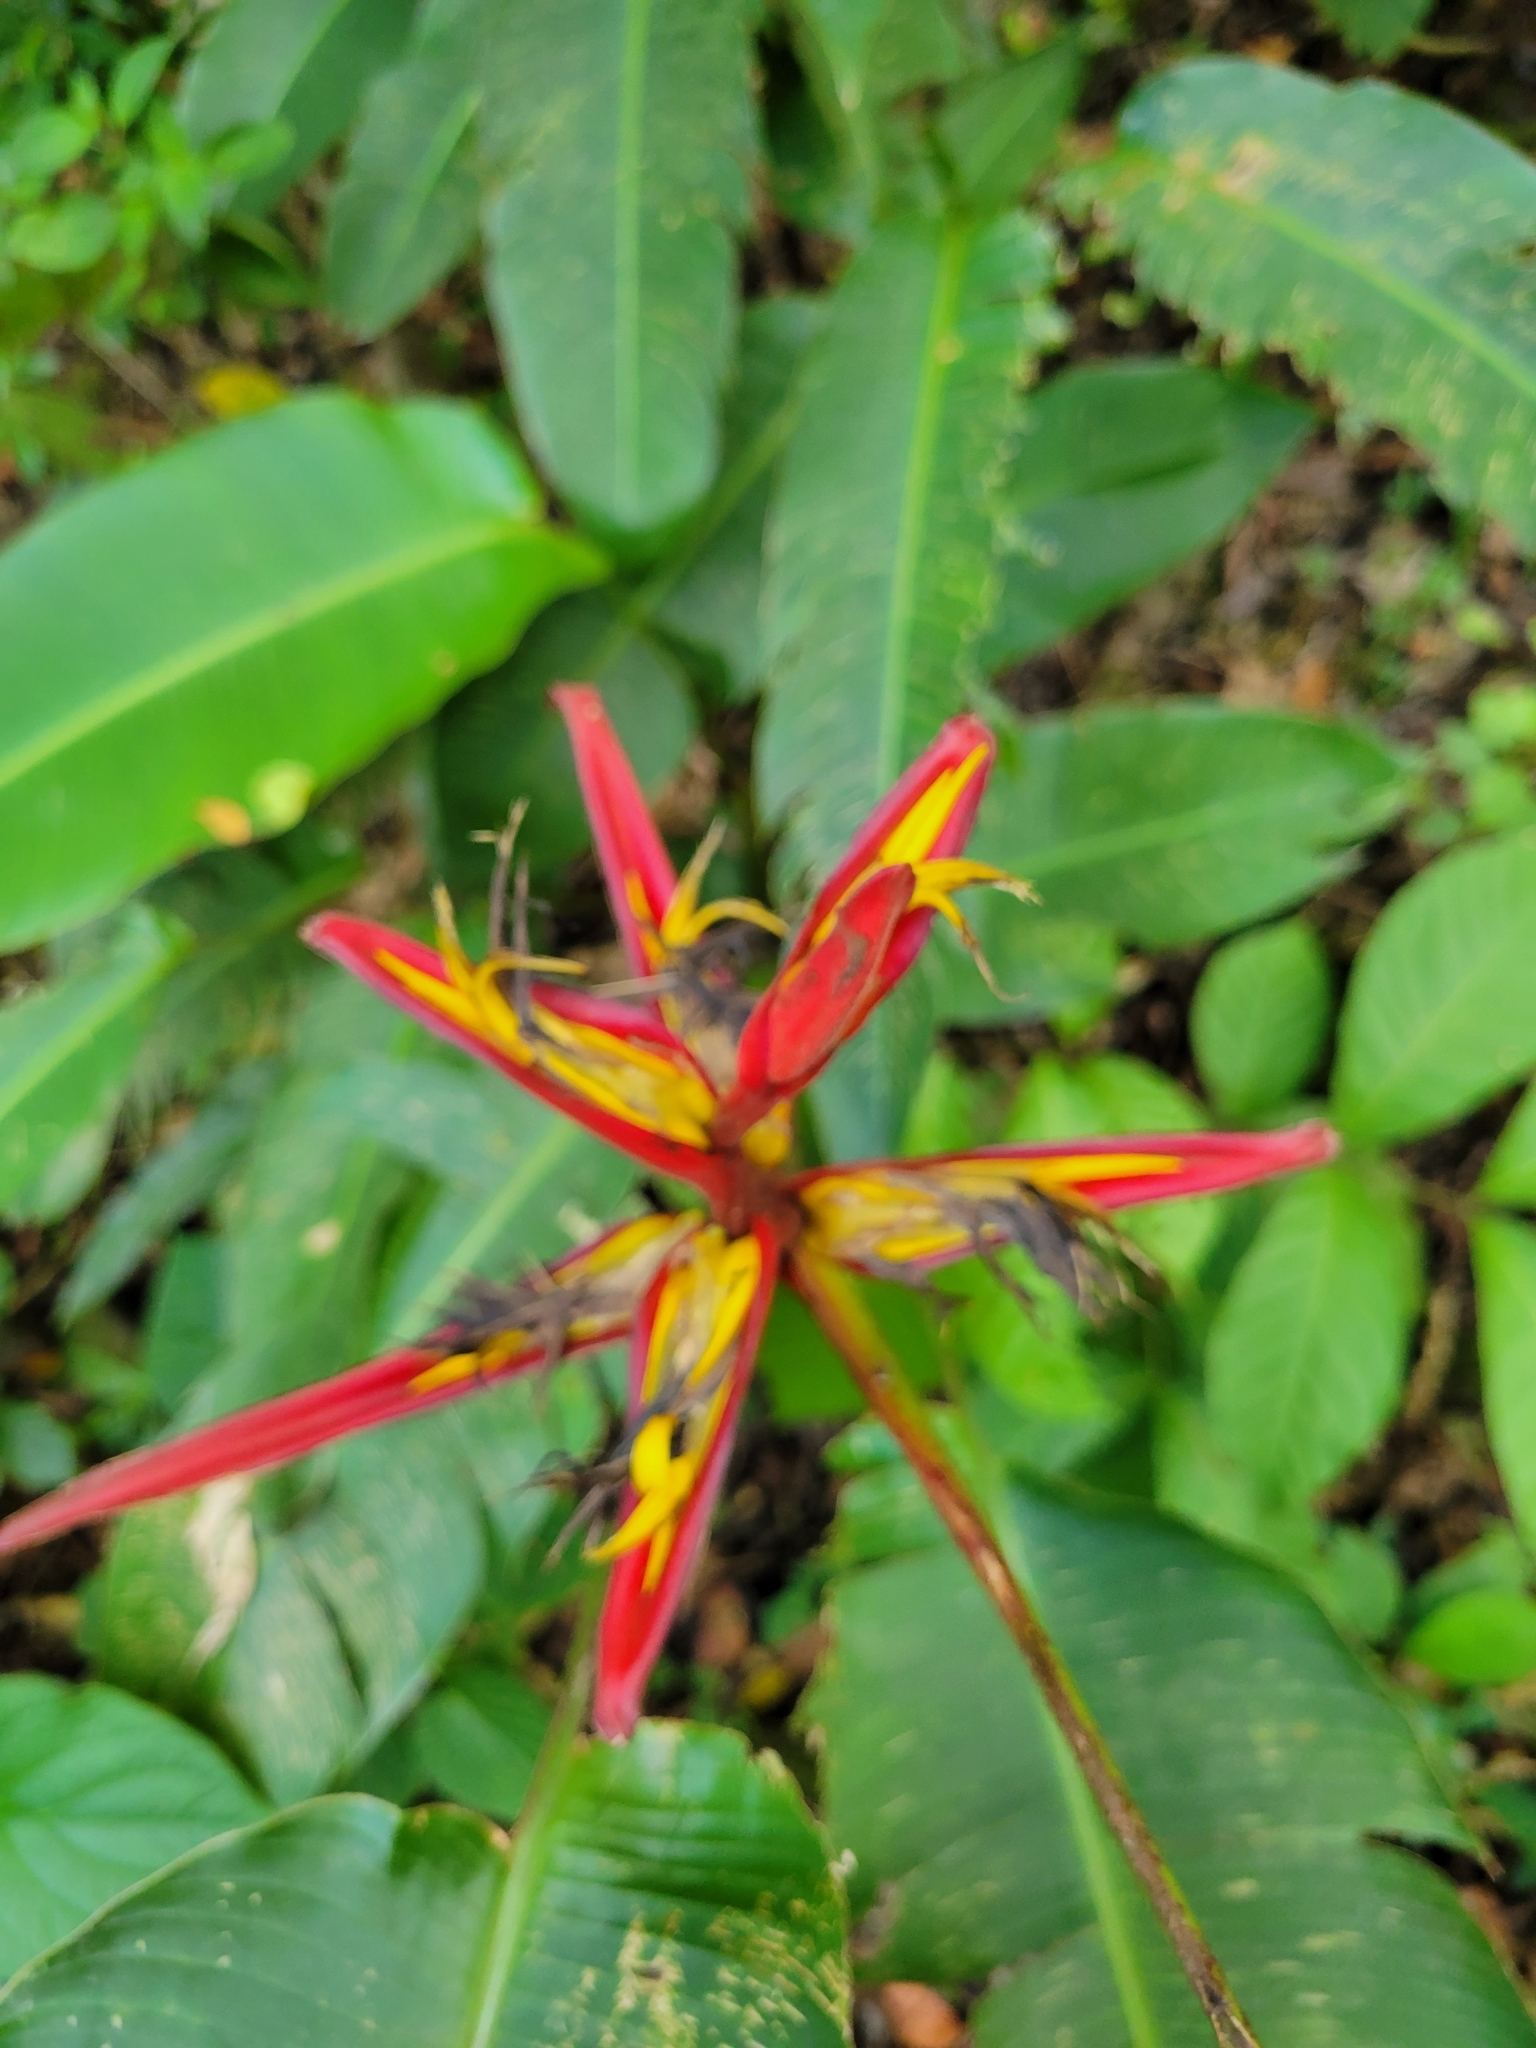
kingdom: Plantae
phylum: Tracheophyta
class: Liliopsida
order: Zingiberales
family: Heliconiaceae
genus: Heliconia
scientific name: Heliconia tortuosa
